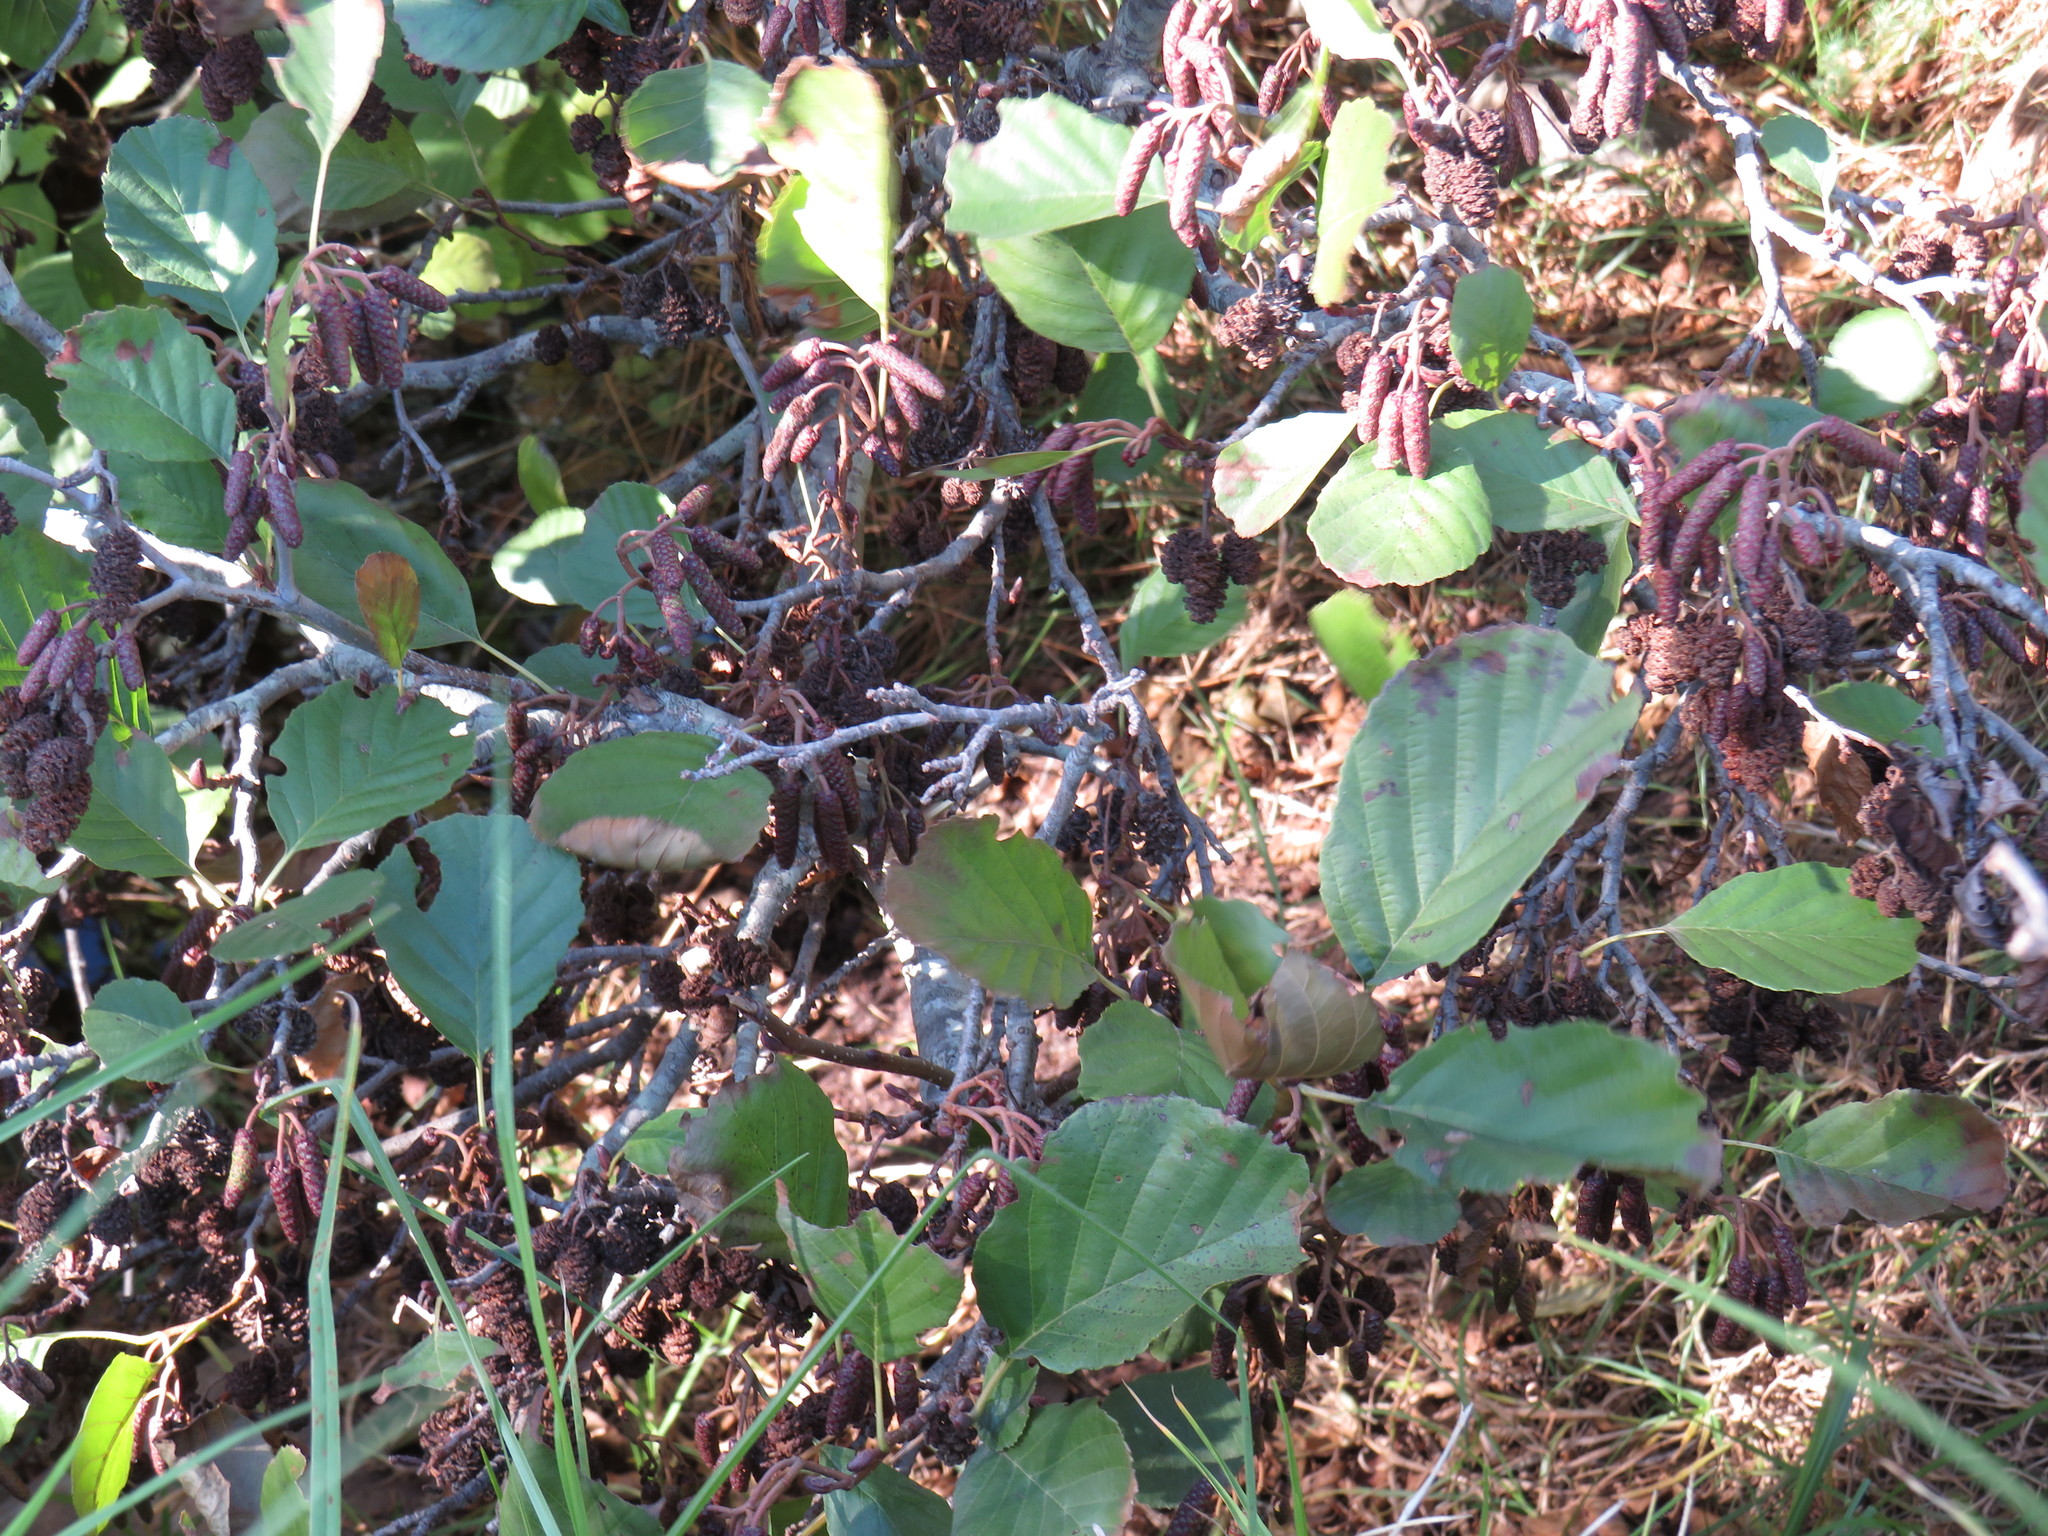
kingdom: Plantae
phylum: Tracheophyta
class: Magnoliopsida
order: Fagales
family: Betulaceae
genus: Alnus
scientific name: Alnus glutinosa
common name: Black alder
